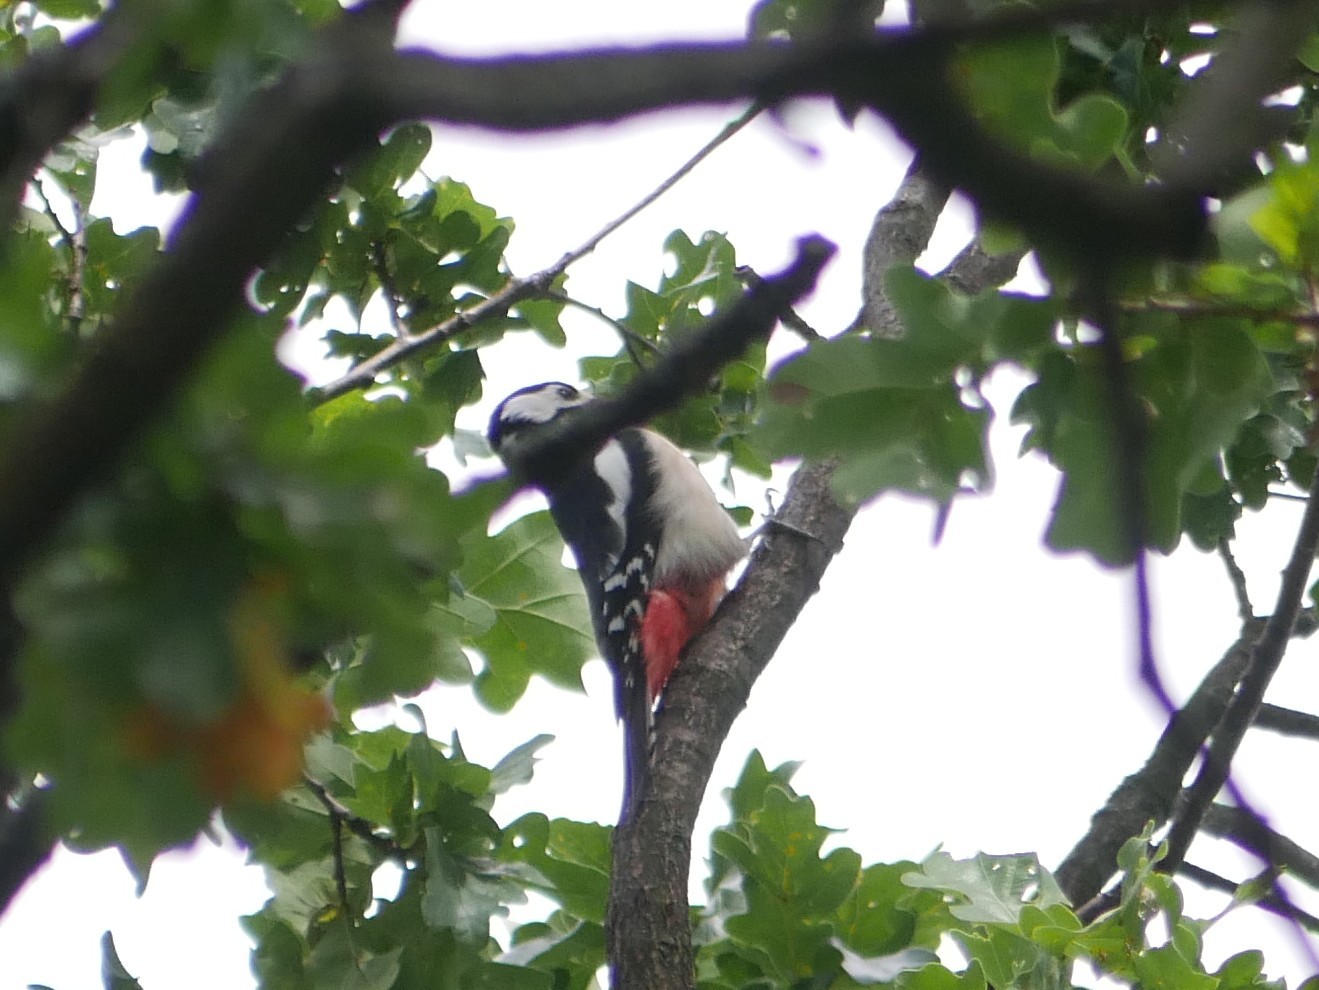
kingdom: Animalia
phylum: Chordata
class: Aves
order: Piciformes
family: Picidae
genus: Dendrocopos
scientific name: Dendrocopos major
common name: Great spotted woodpecker
